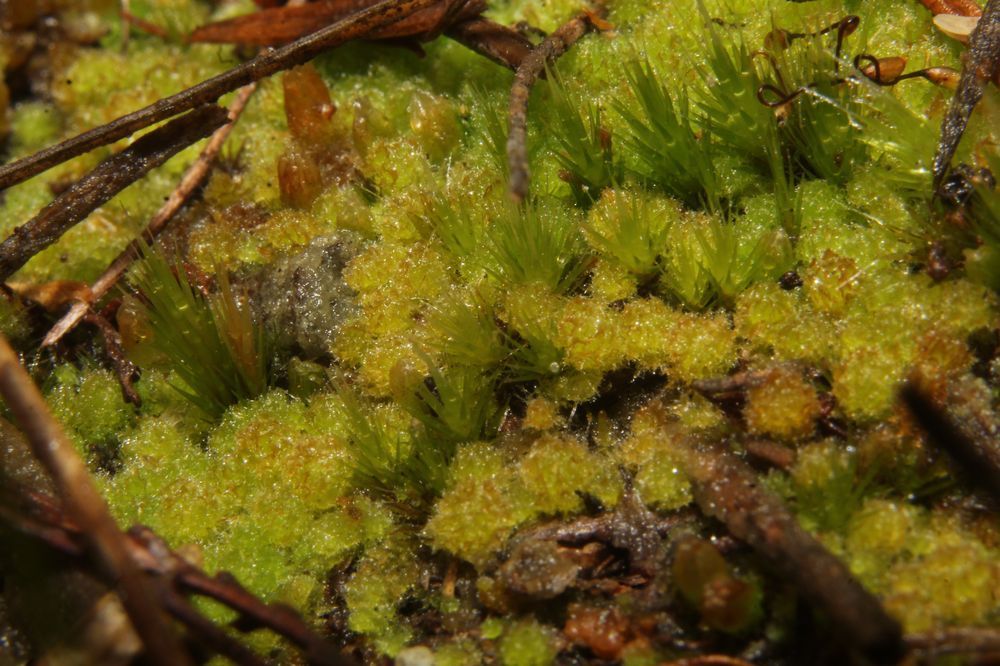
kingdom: Plantae
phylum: Marchantiophyta
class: Jungermanniopsida
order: Jungermanniales
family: Cephaloziellaceae
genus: Chaetophyllopsis
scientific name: Chaetophyllopsis whiteleggei
